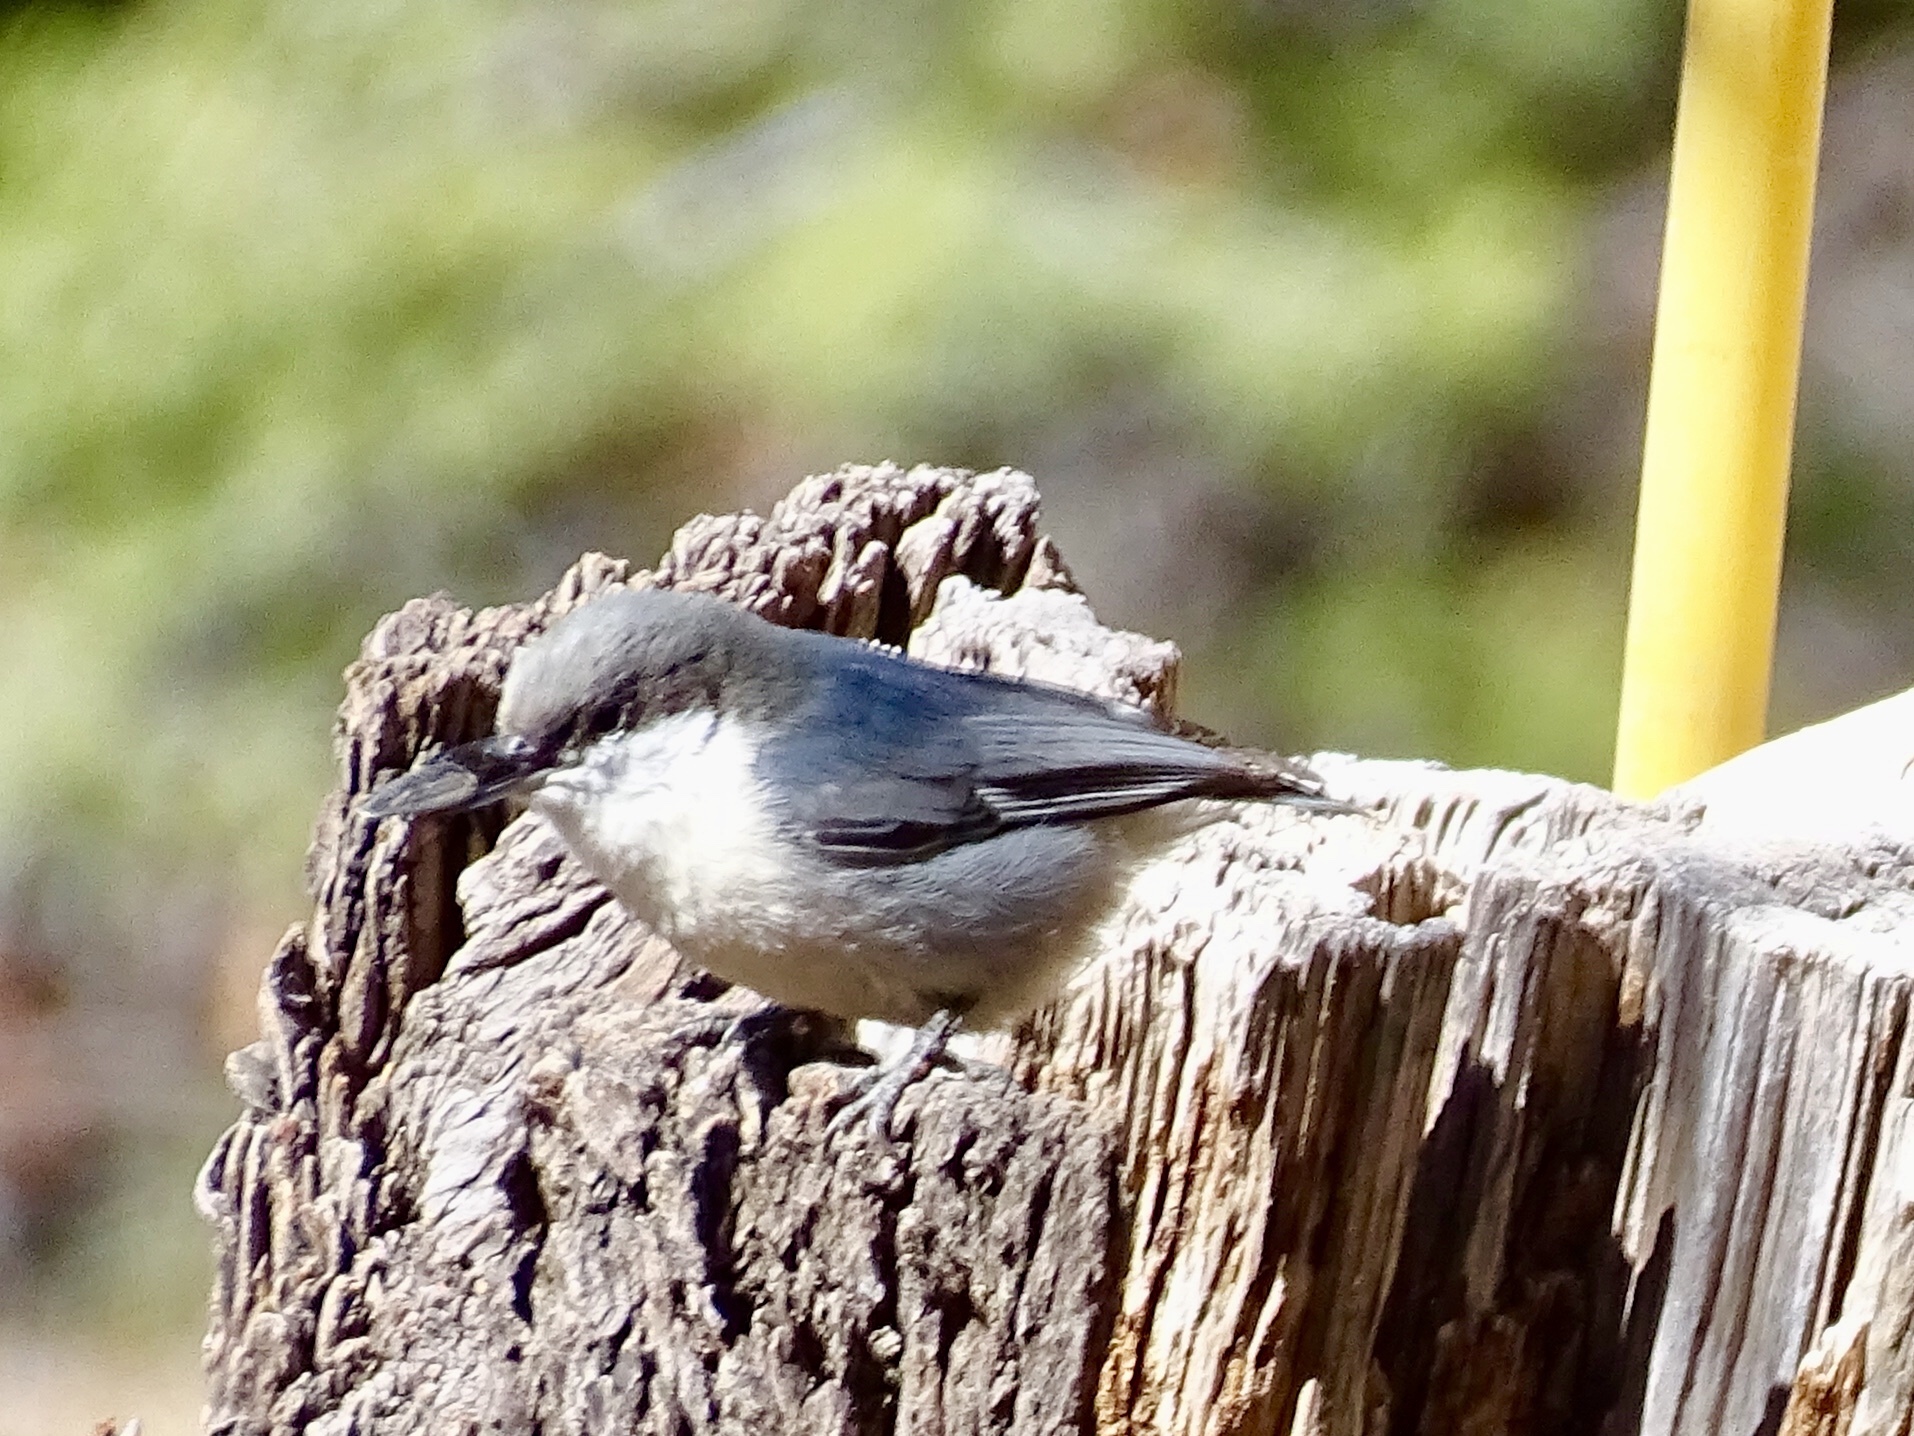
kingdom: Animalia
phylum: Chordata
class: Aves
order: Passeriformes
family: Sittidae
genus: Sitta
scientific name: Sitta pygmaea
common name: Pygmy nuthatch
